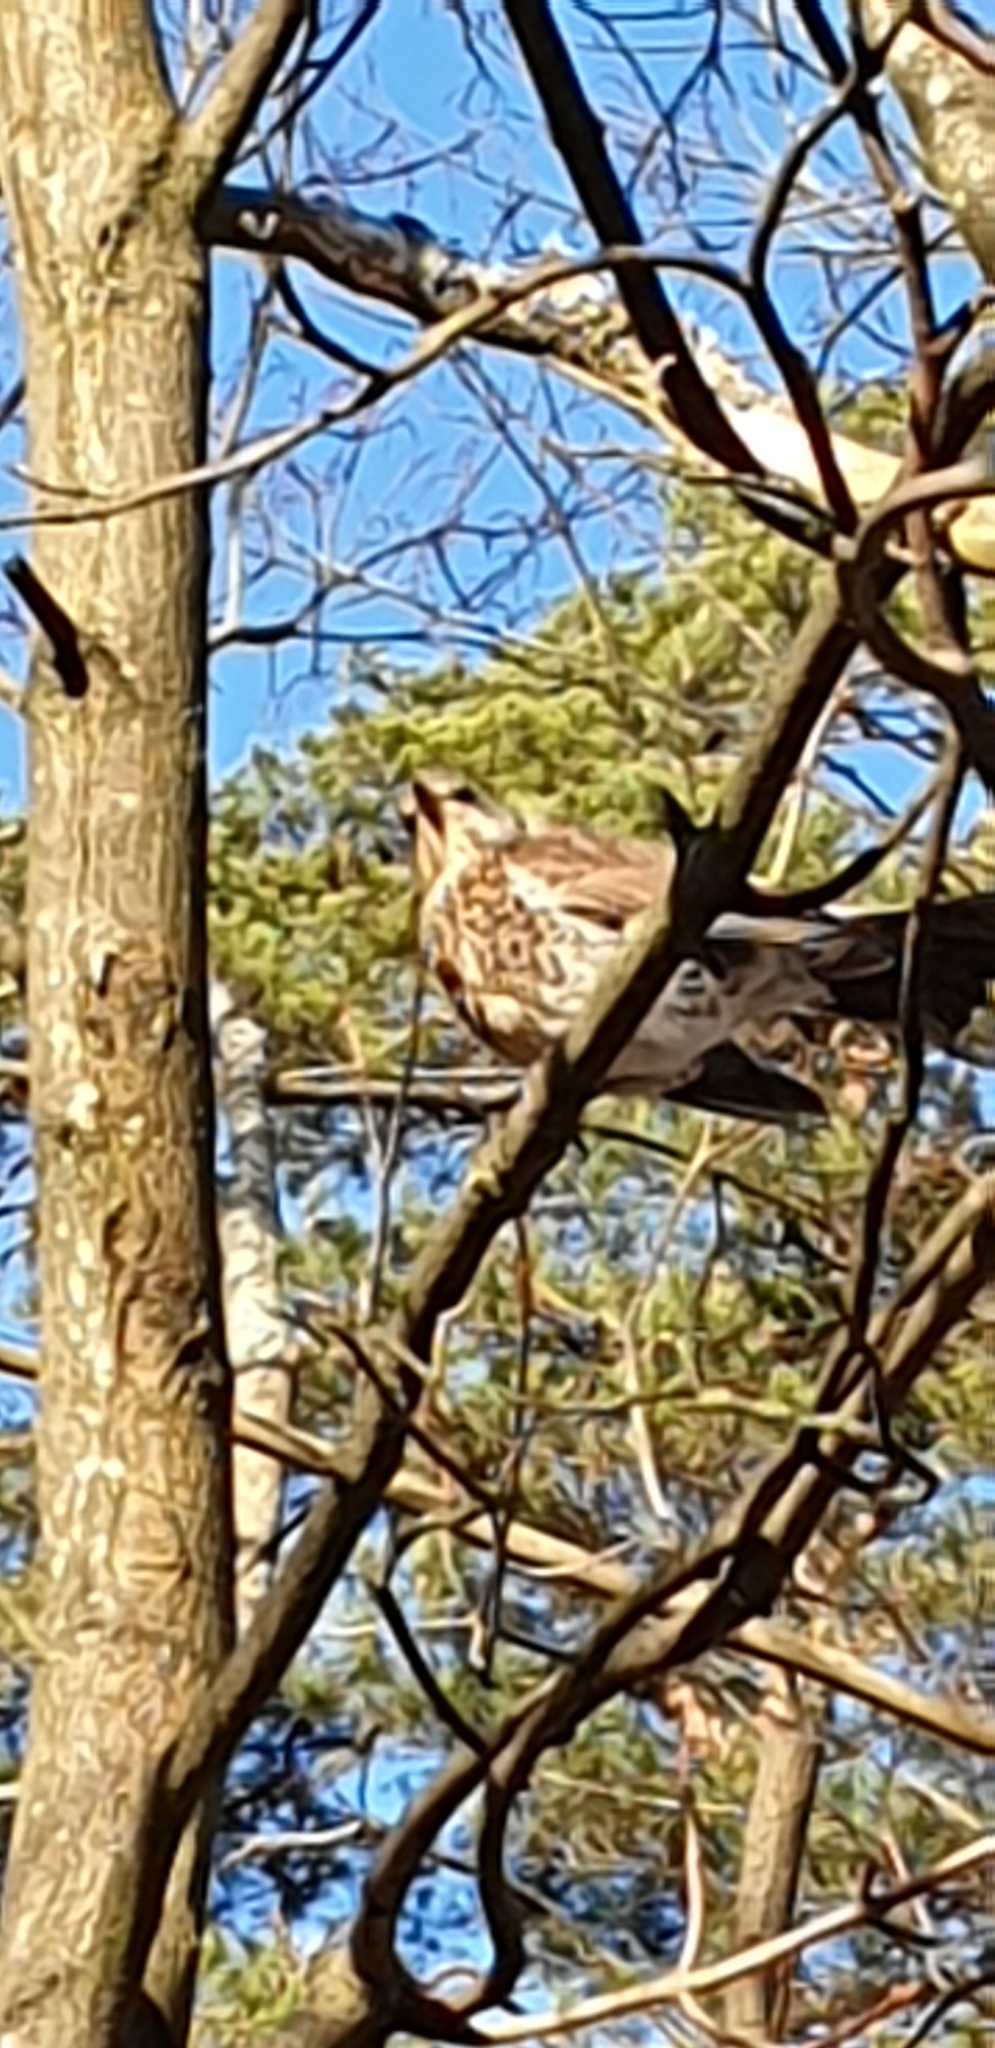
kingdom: Animalia
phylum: Chordata
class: Aves
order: Passeriformes
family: Turdidae
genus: Turdus
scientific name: Turdus pilaris
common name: Fieldfare
